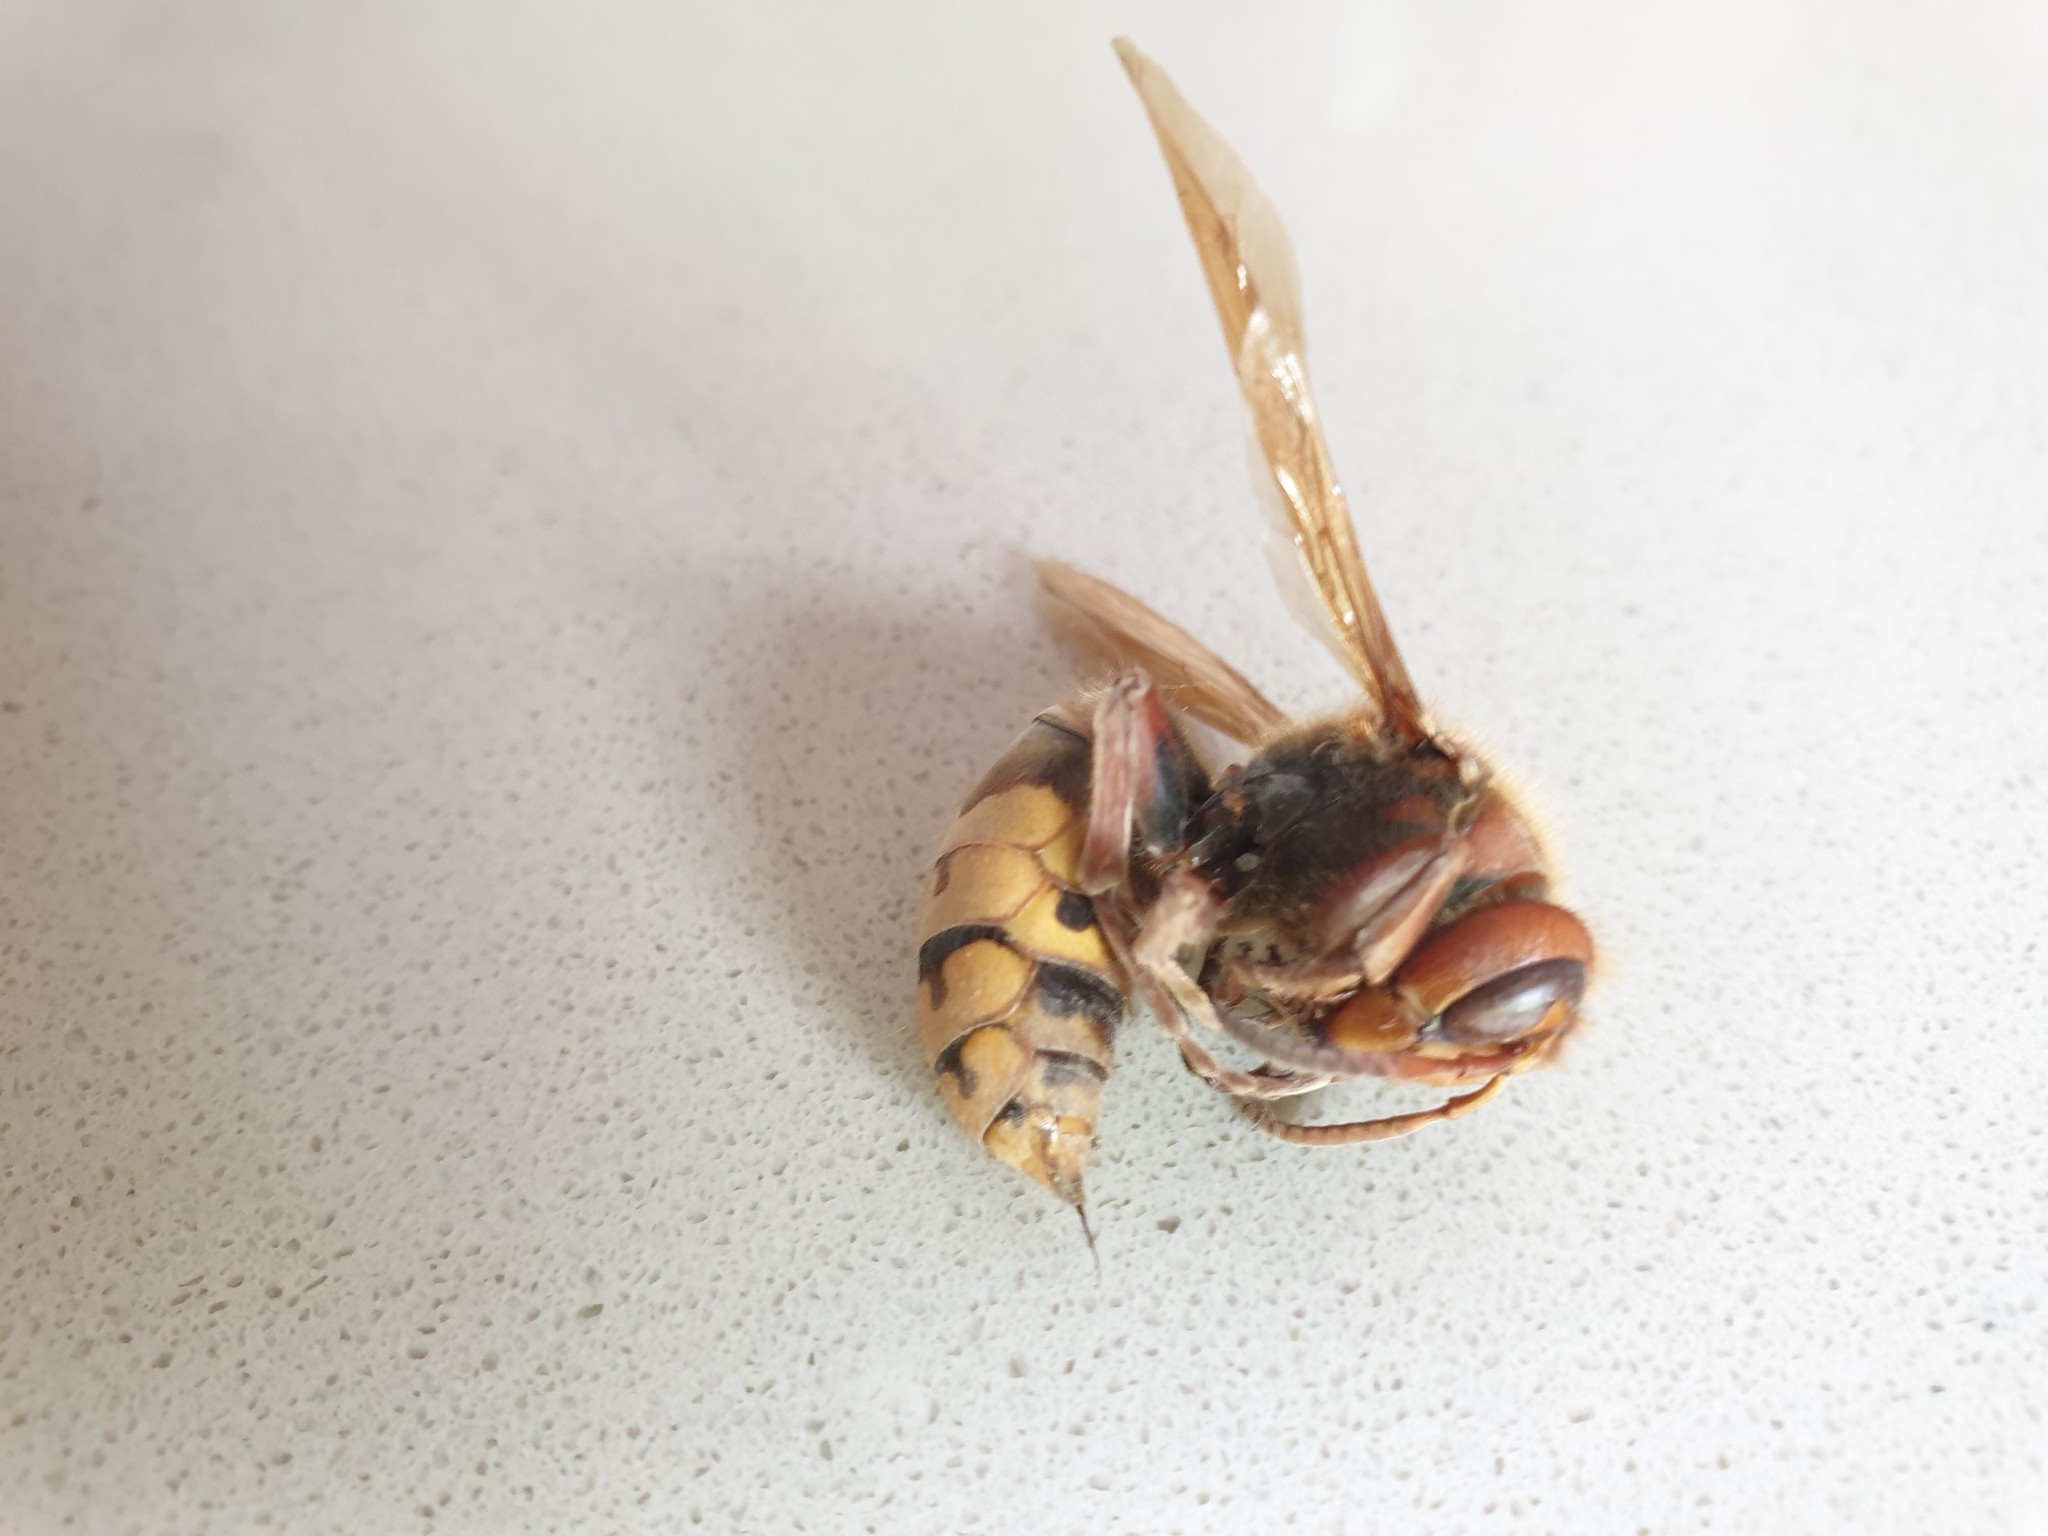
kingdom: Animalia
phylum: Arthropoda
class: Insecta
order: Hymenoptera
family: Vespidae
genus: Vespa
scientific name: Vespa crabro
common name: Hornet
